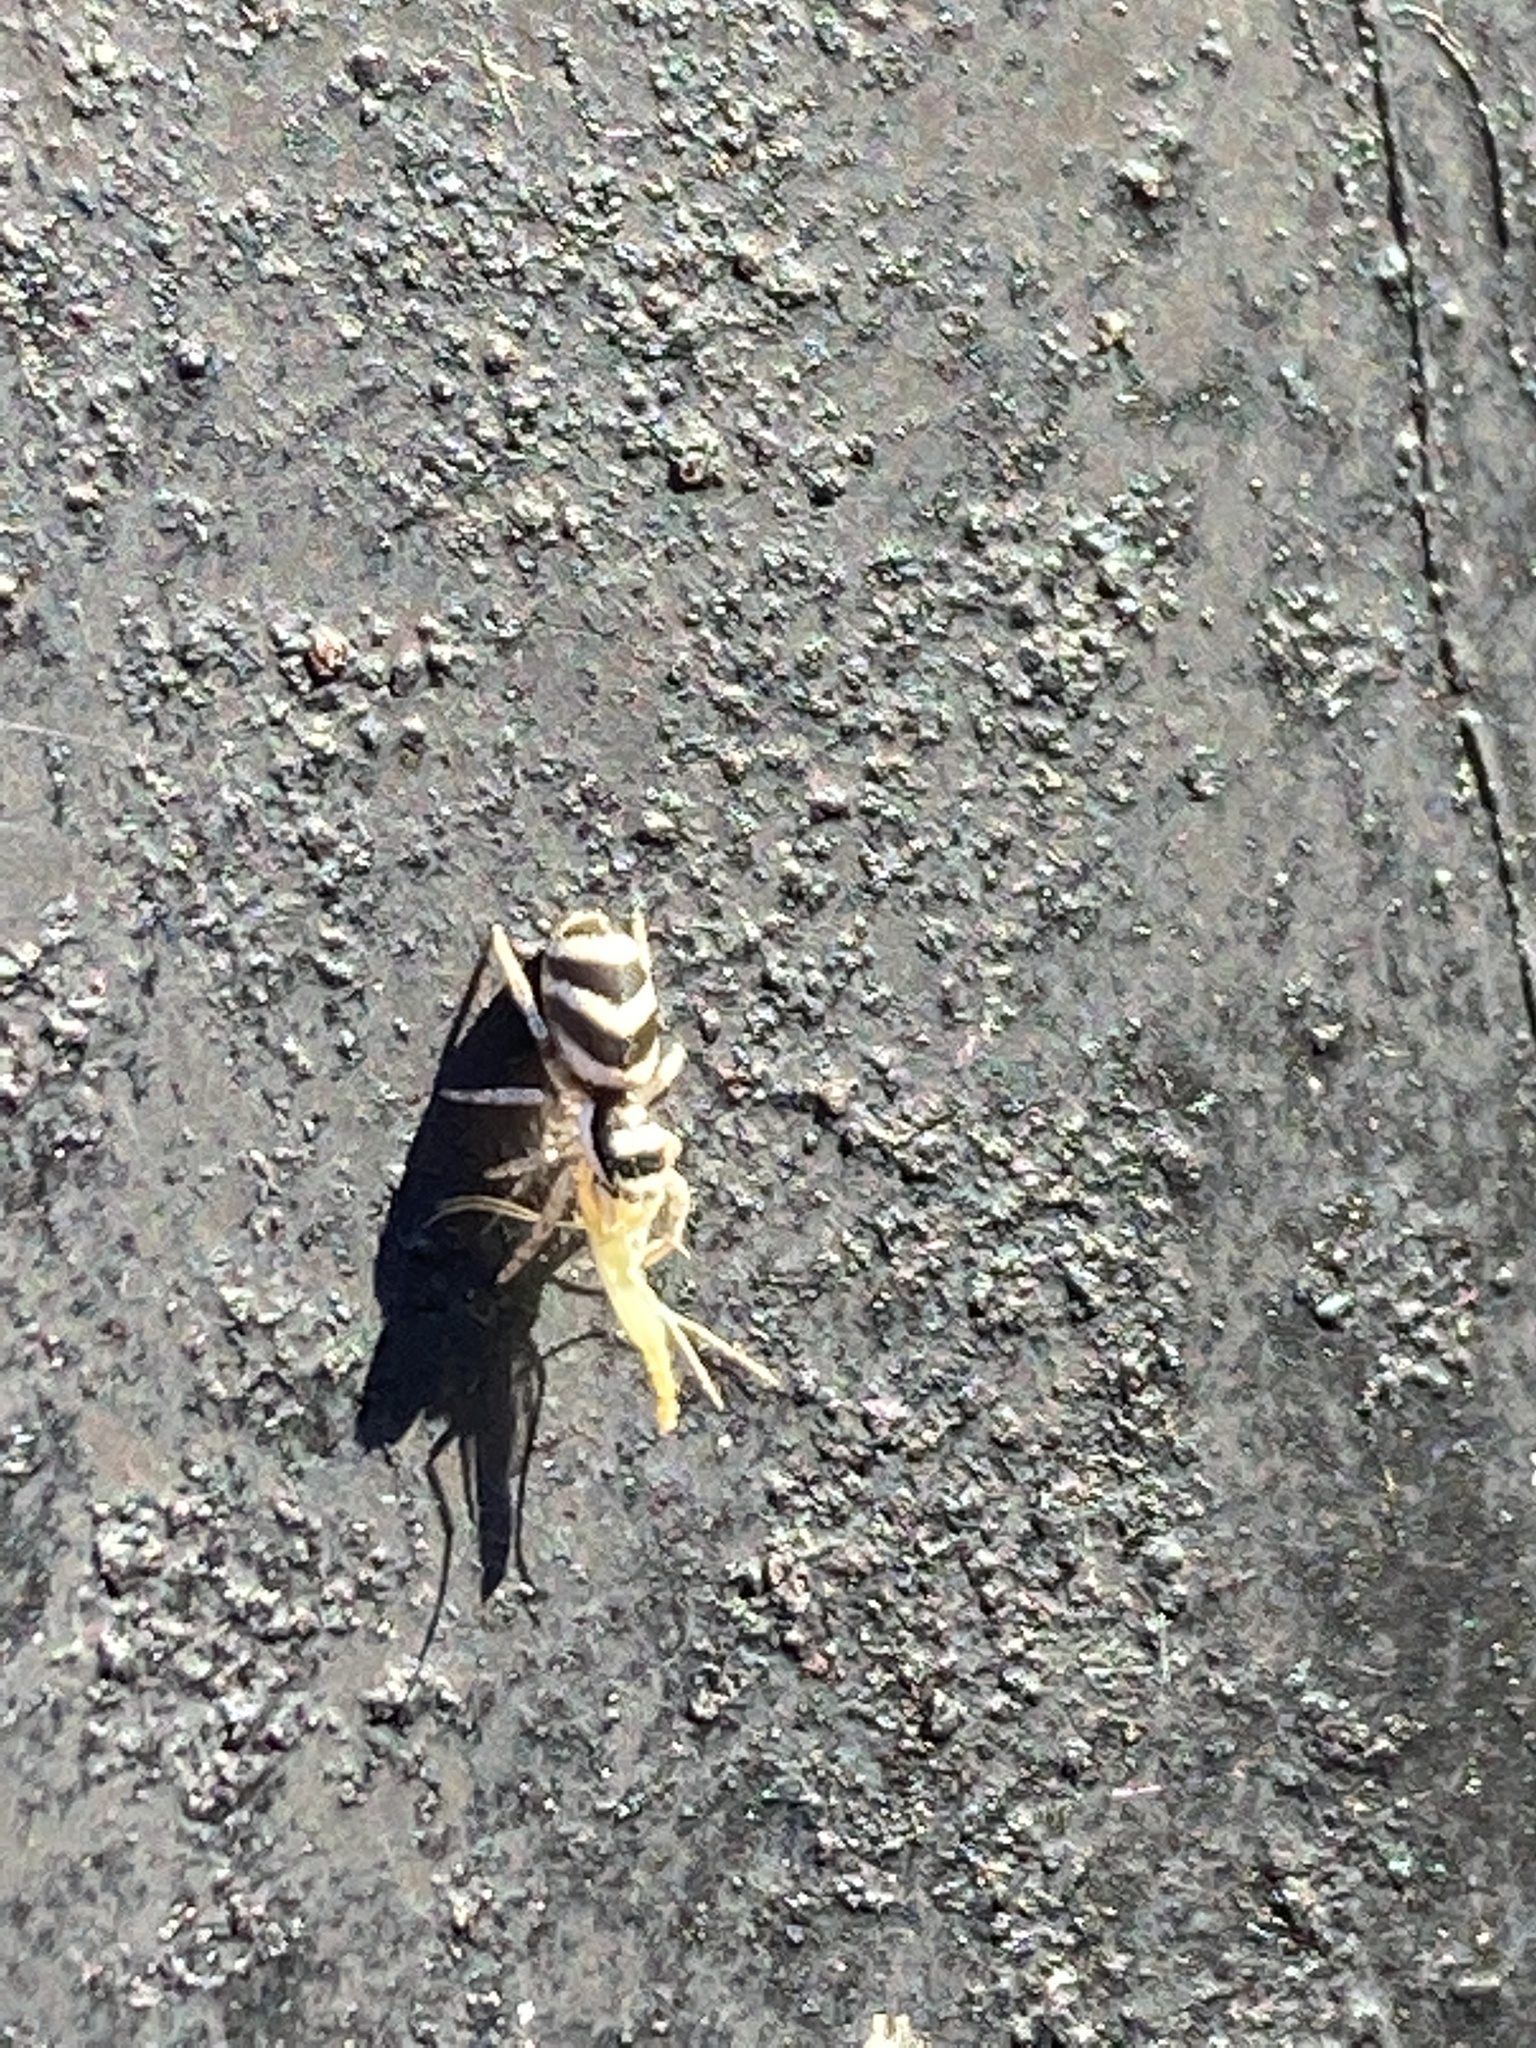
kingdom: Animalia
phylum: Arthropoda
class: Arachnida
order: Araneae
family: Salticidae
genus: Salticus
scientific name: Salticus austinensis
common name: Jumping spiders
